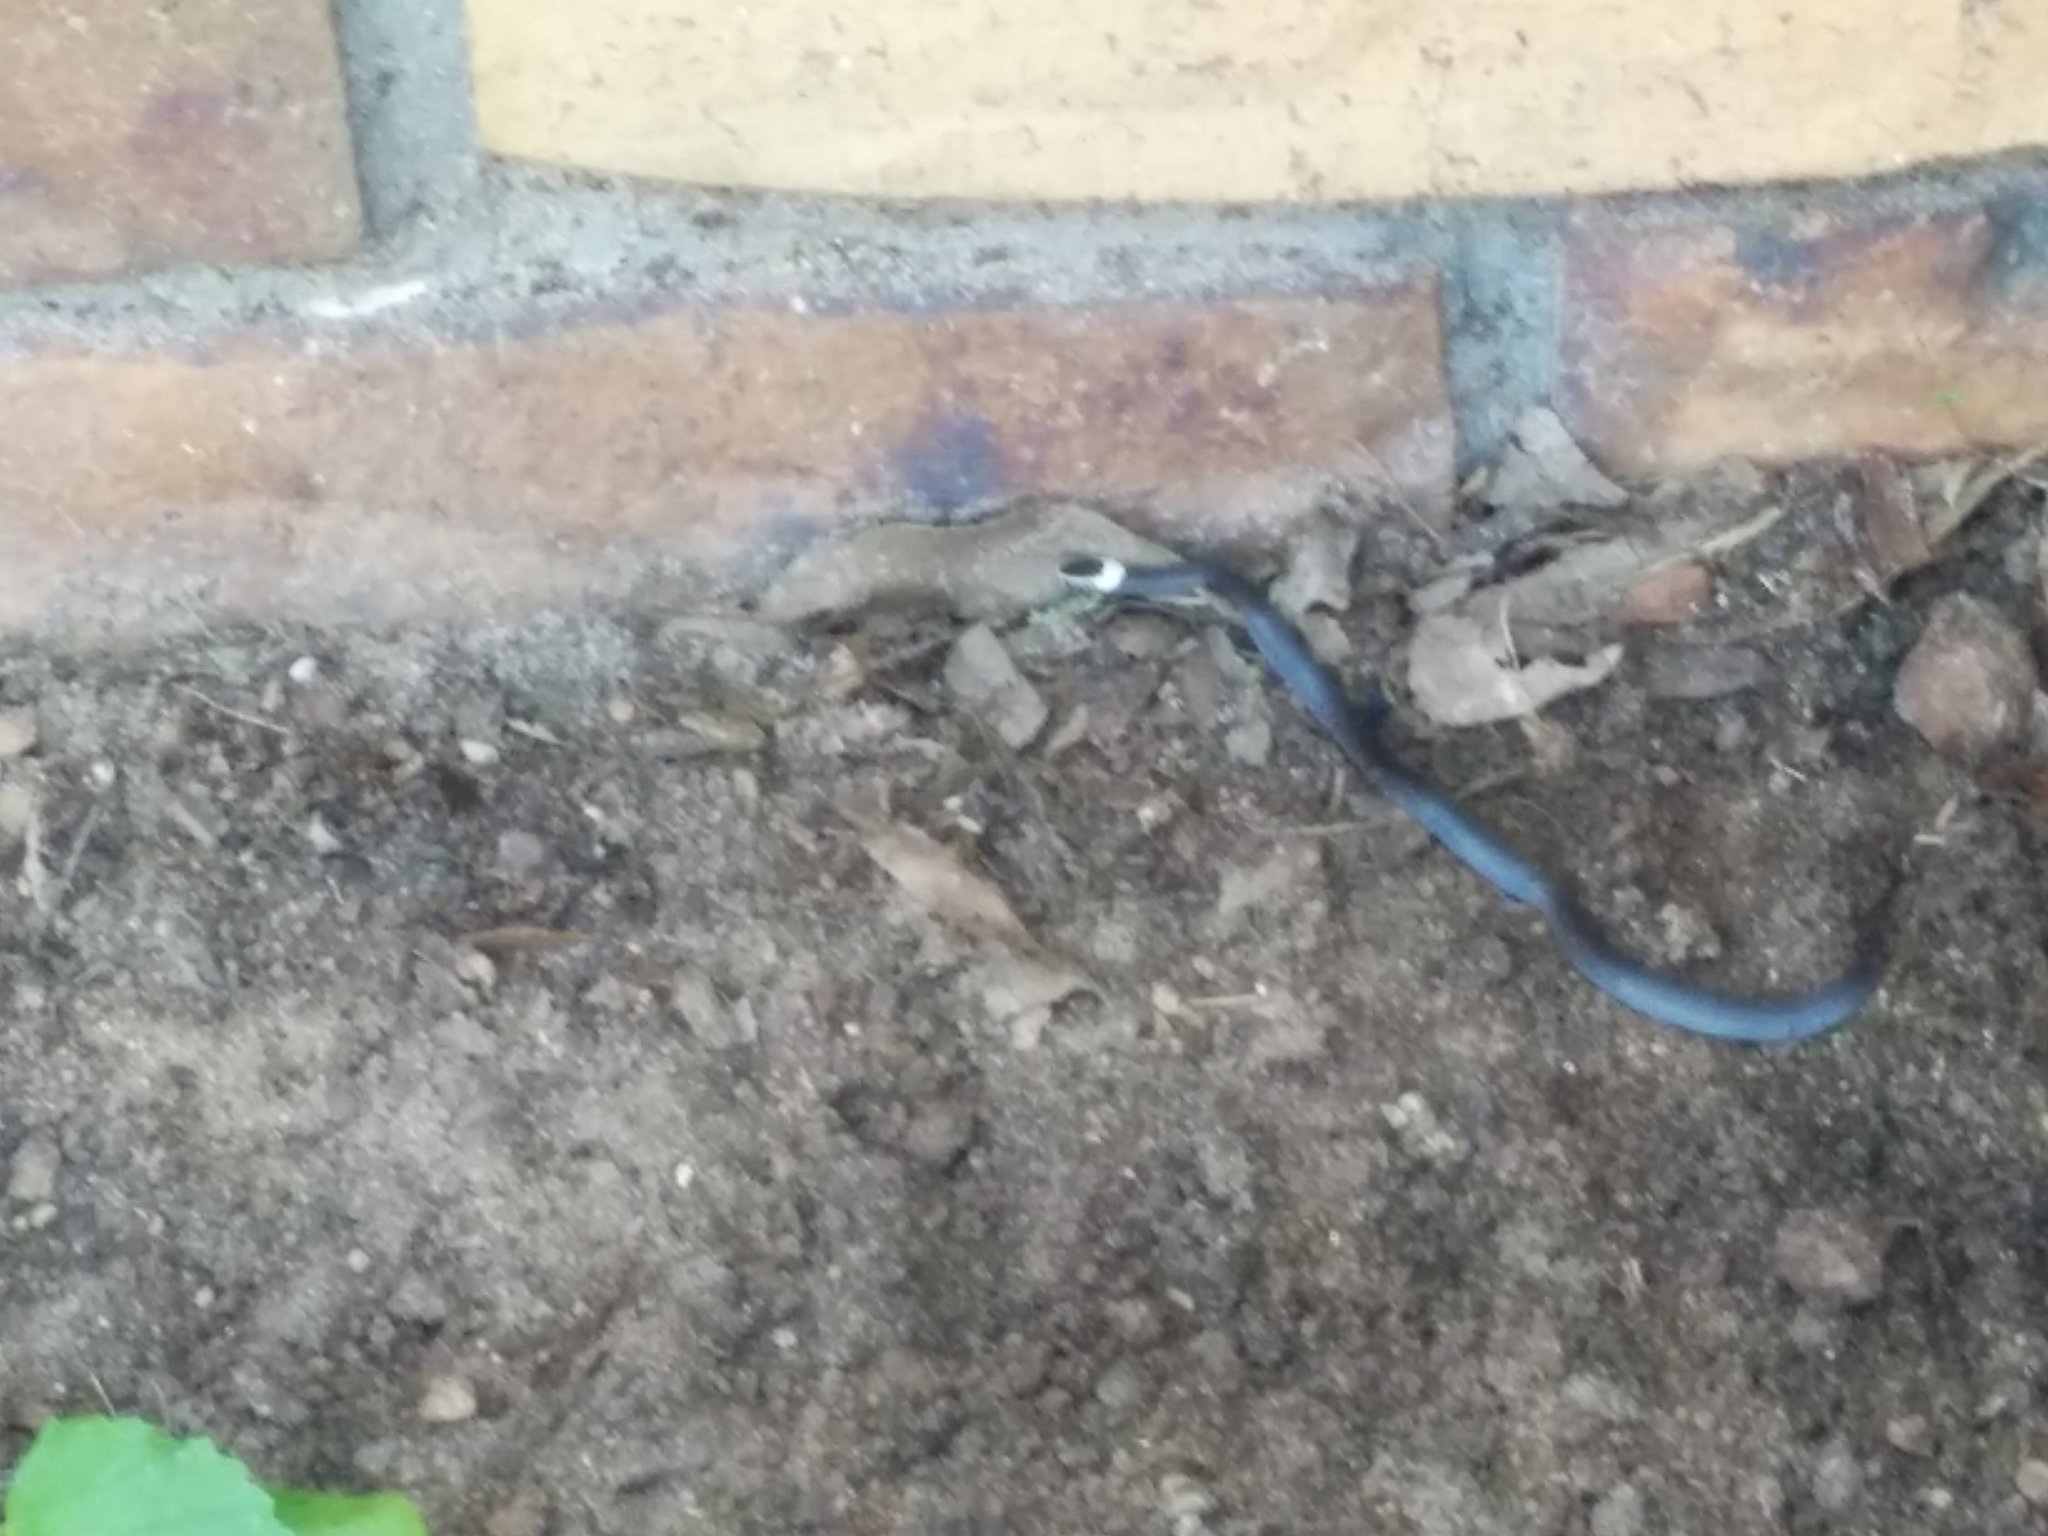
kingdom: Animalia
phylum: Chordata
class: Squamata
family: Elapidae
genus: Cacophis
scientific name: Cacophis harriettae
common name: White-crowned snake
